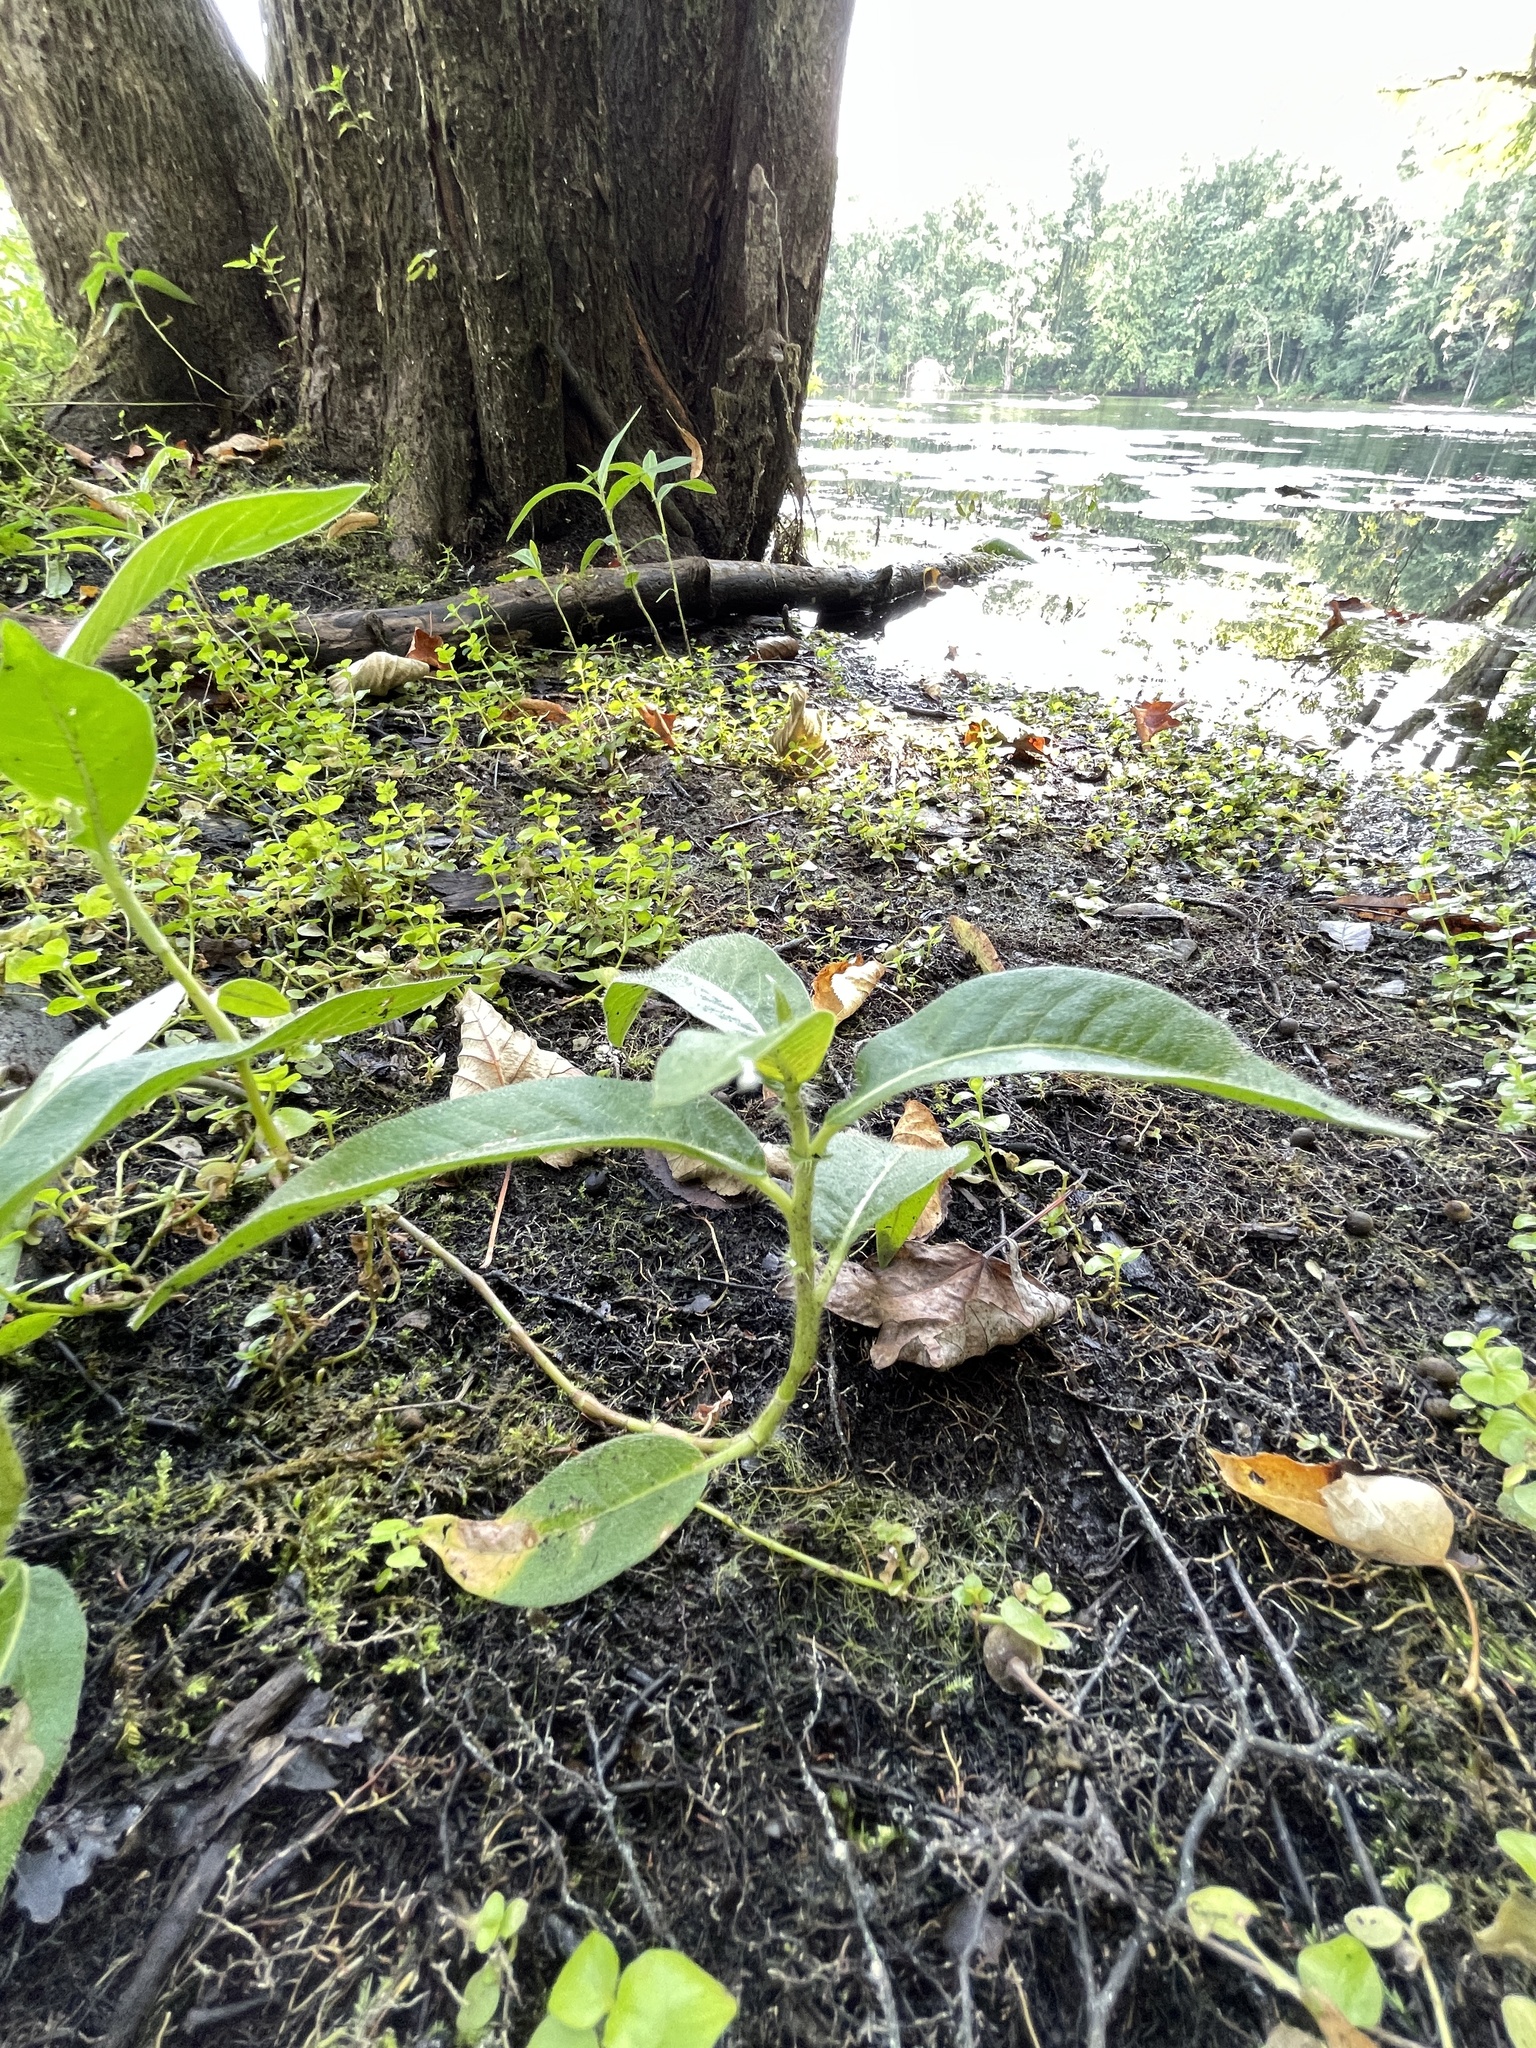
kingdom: Plantae
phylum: Tracheophyta
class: Magnoliopsida
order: Caryophyllales
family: Polygonaceae
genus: Persicaria
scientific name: Persicaria amphibia
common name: Amphibious bistort
